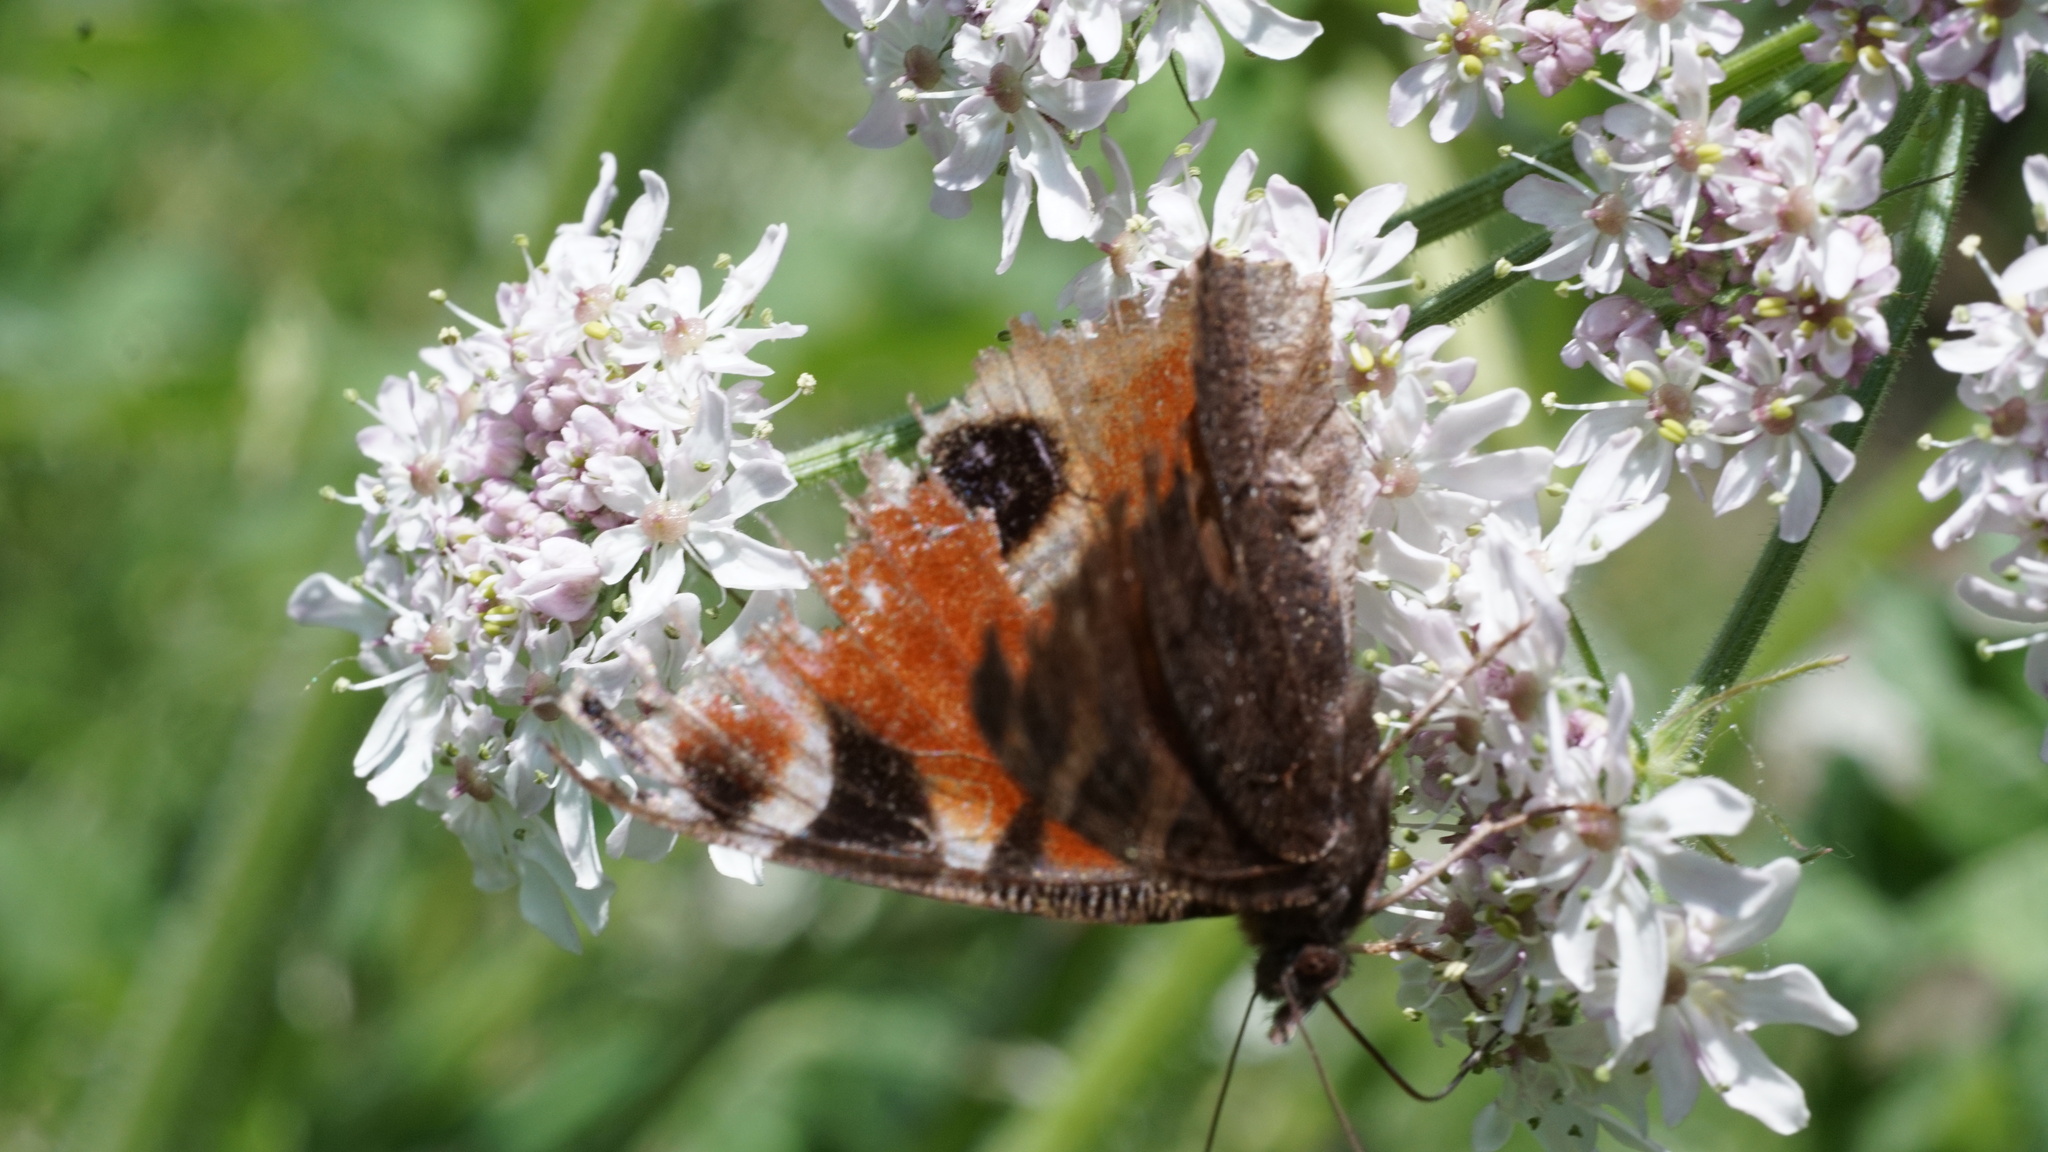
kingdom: Animalia
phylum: Arthropoda
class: Insecta
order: Lepidoptera
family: Nymphalidae
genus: Aglais
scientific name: Aglais io
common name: Peacock
